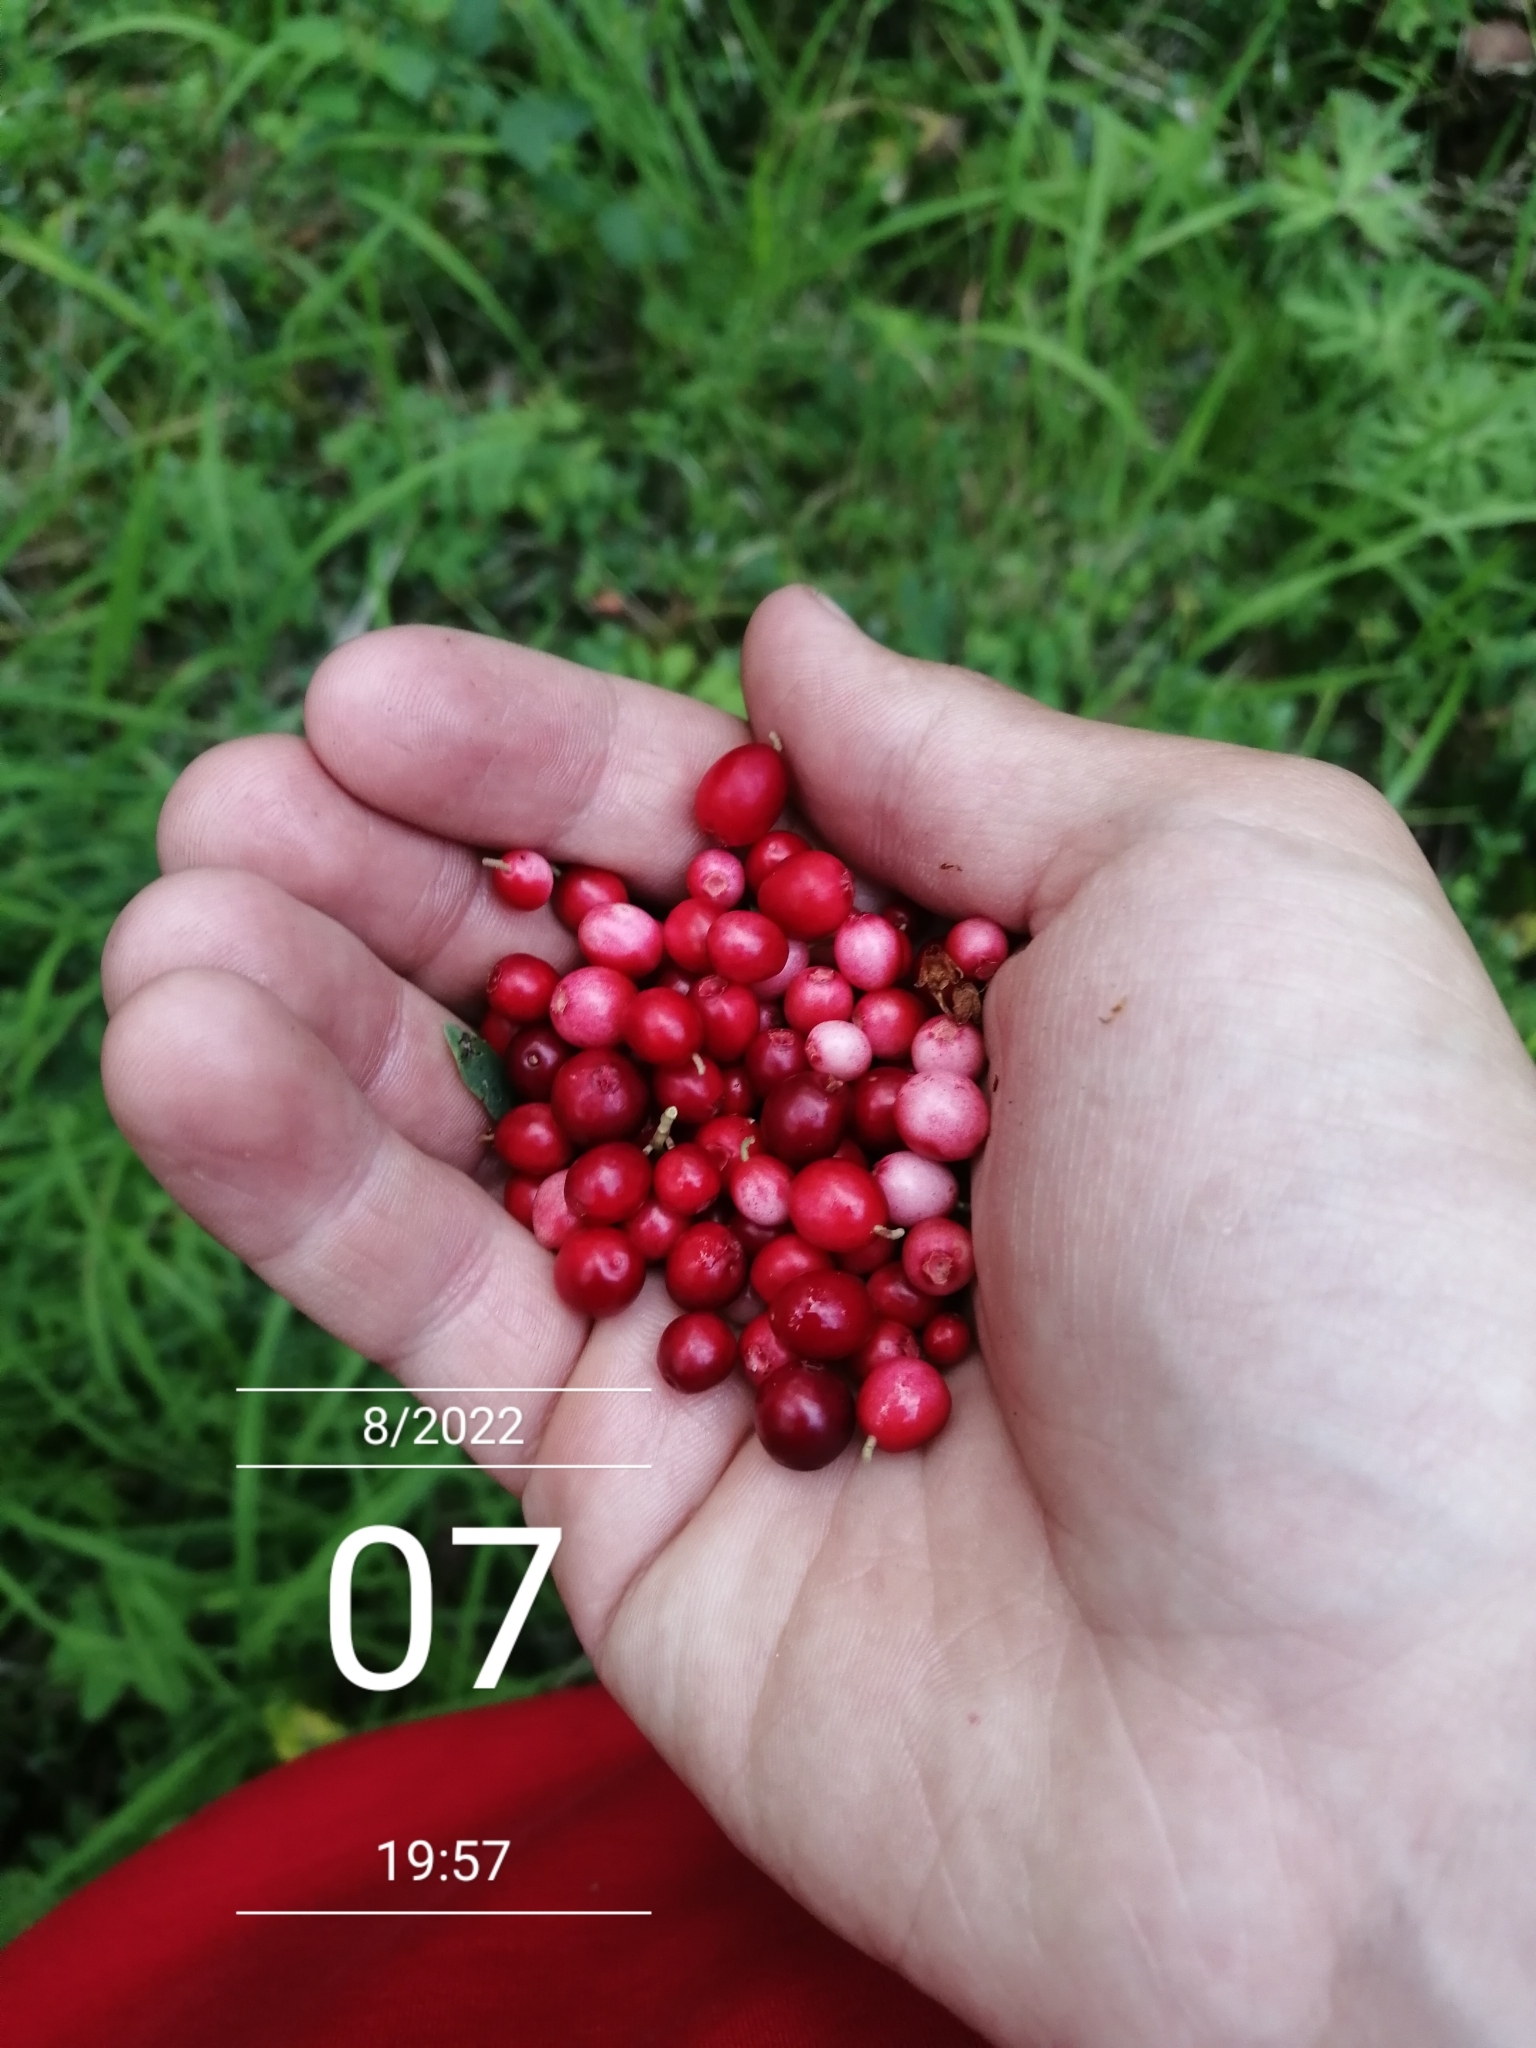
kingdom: Plantae
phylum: Tracheophyta
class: Magnoliopsida
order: Ericales
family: Ericaceae
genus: Vaccinium
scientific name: Vaccinium vitis-idaea
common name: Cowberry
